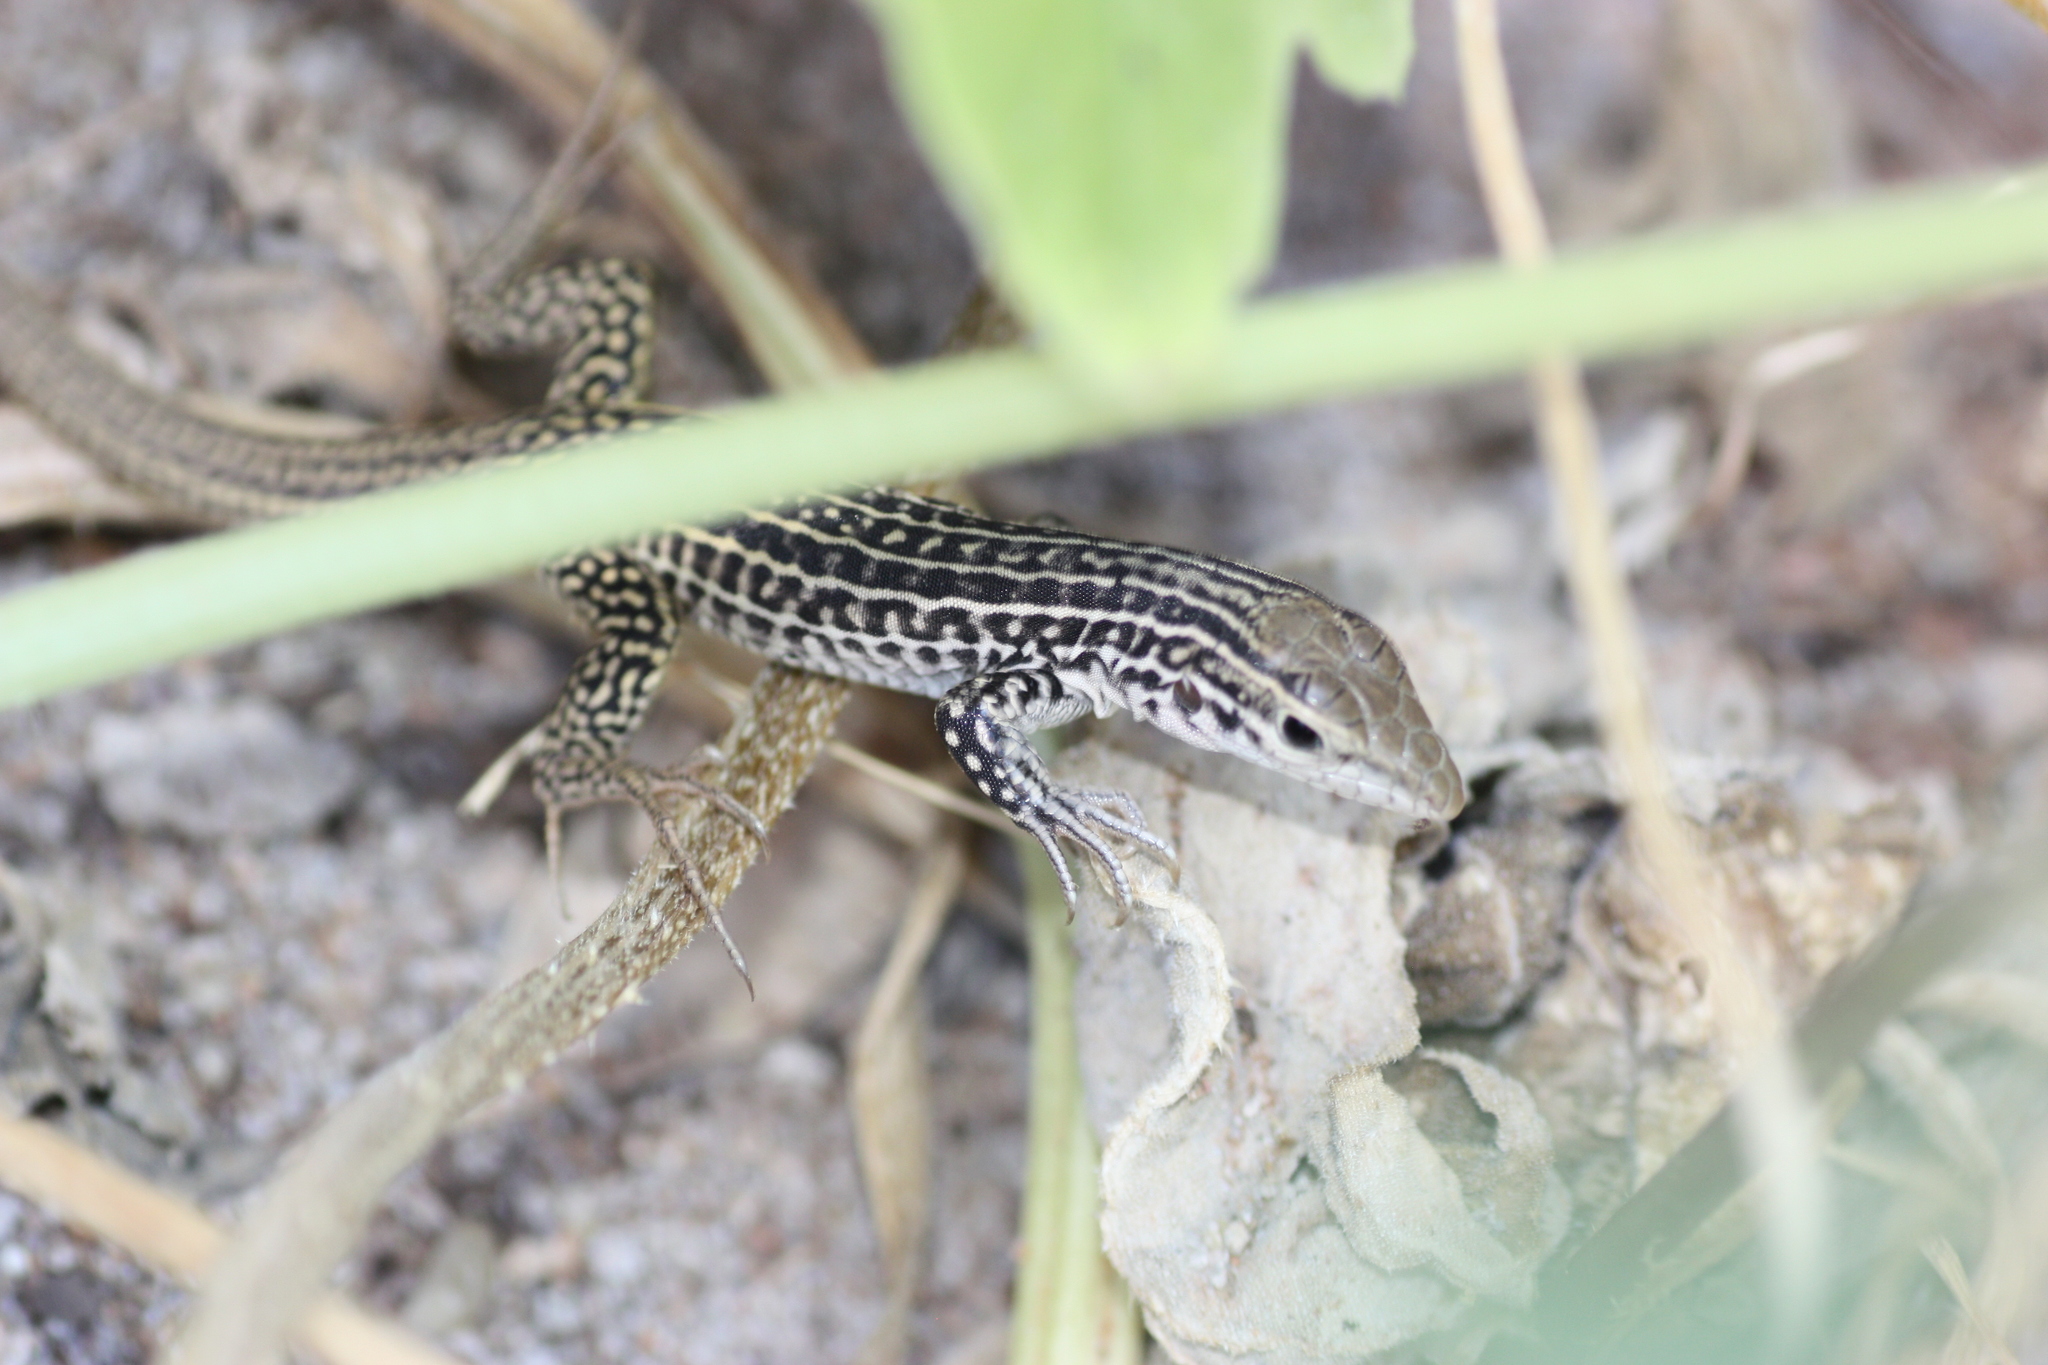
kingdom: Animalia
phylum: Chordata
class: Squamata
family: Teiidae
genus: Aspidoscelis
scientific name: Aspidoscelis tesselatus
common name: Common checkered whiptail [tesselata]
